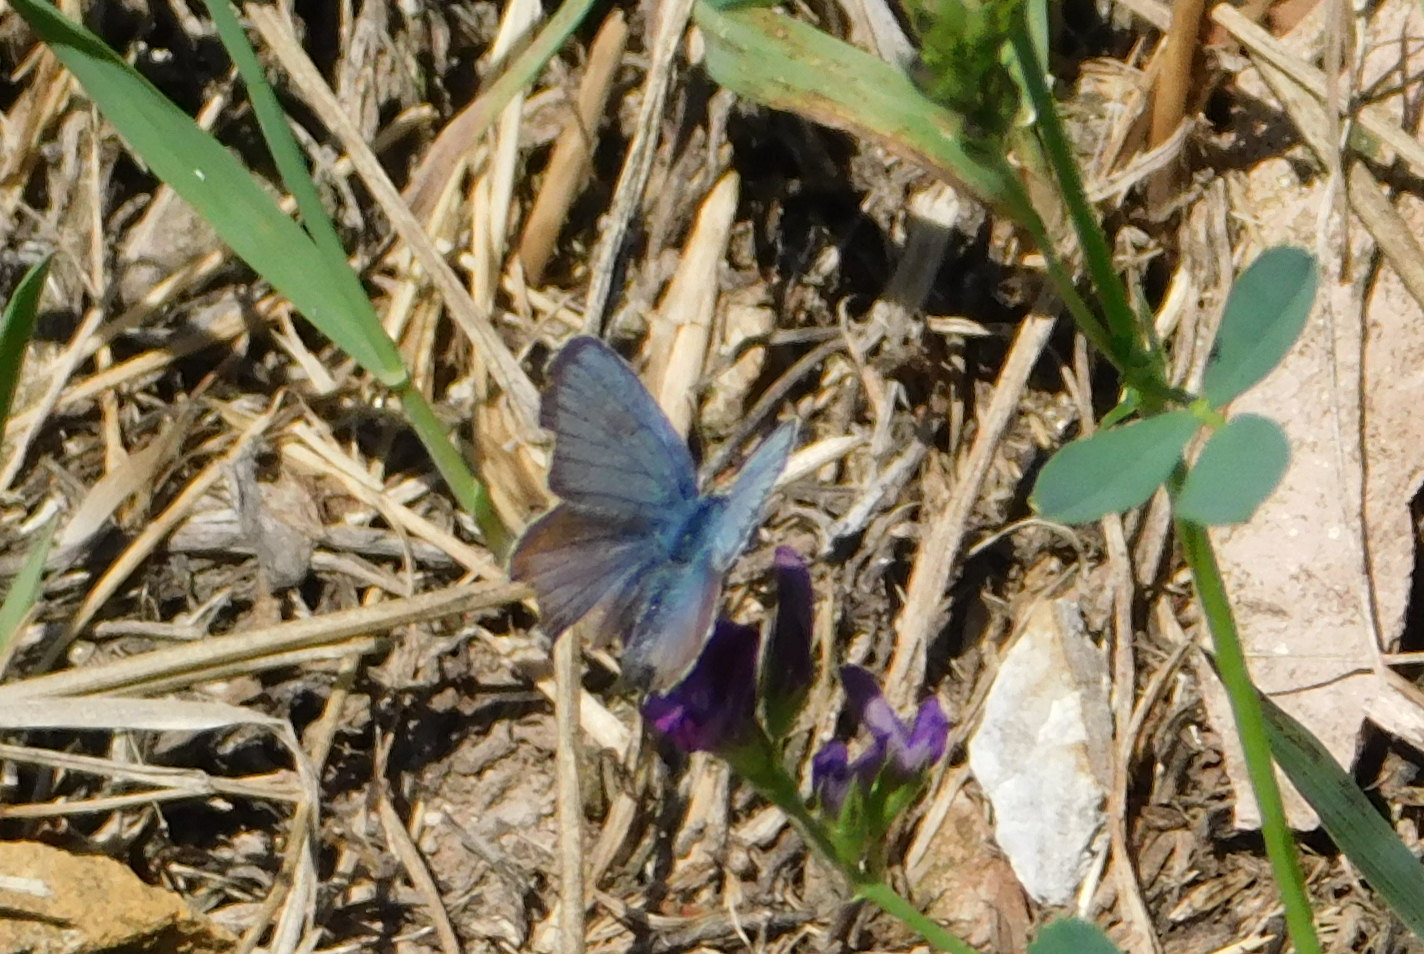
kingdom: Animalia
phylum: Arthropoda
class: Insecta
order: Lepidoptera
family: Lycaenidae
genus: Plebejus
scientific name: Plebejus argus
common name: Silver-studded blue
